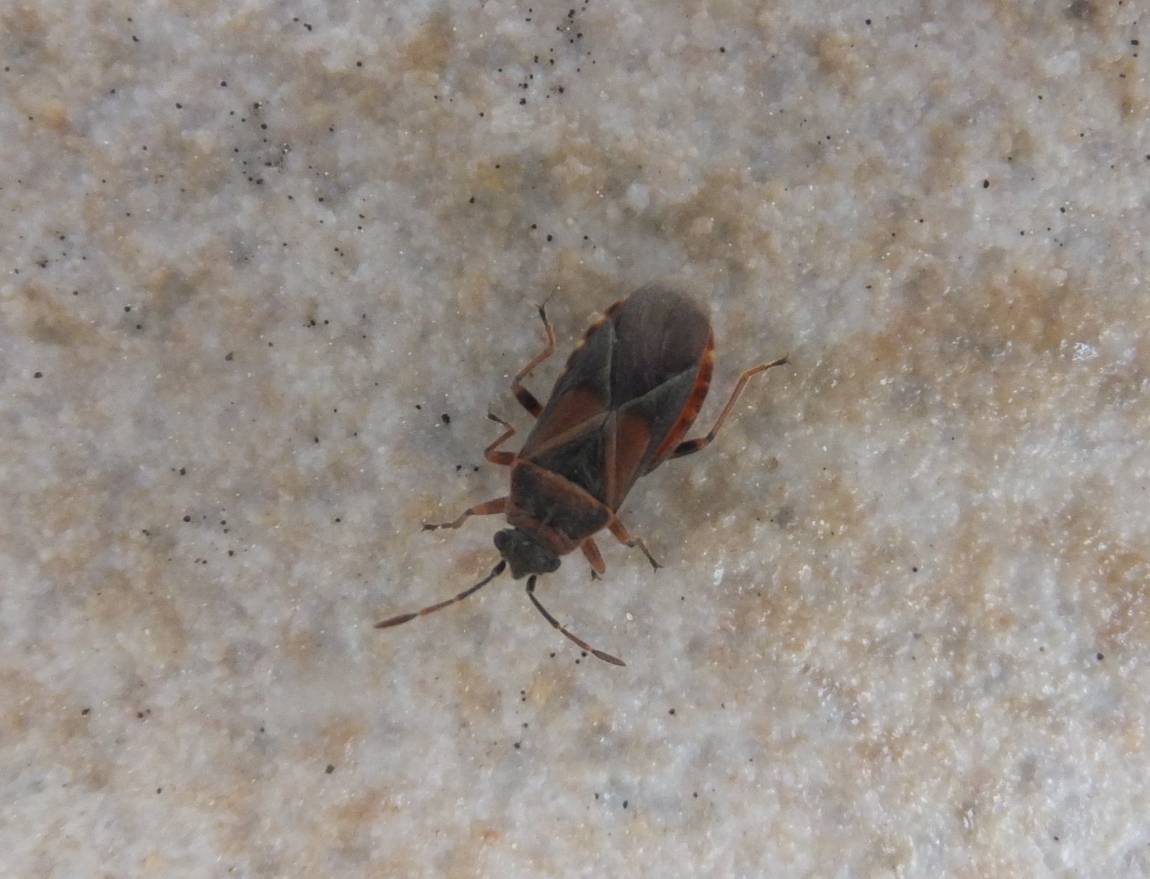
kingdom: Animalia
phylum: Arthropoda
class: Insecta
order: Hemiptera
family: Lygaeidae
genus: Arocatus
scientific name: Arocatus melanocephalus
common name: Lygaeid bug
